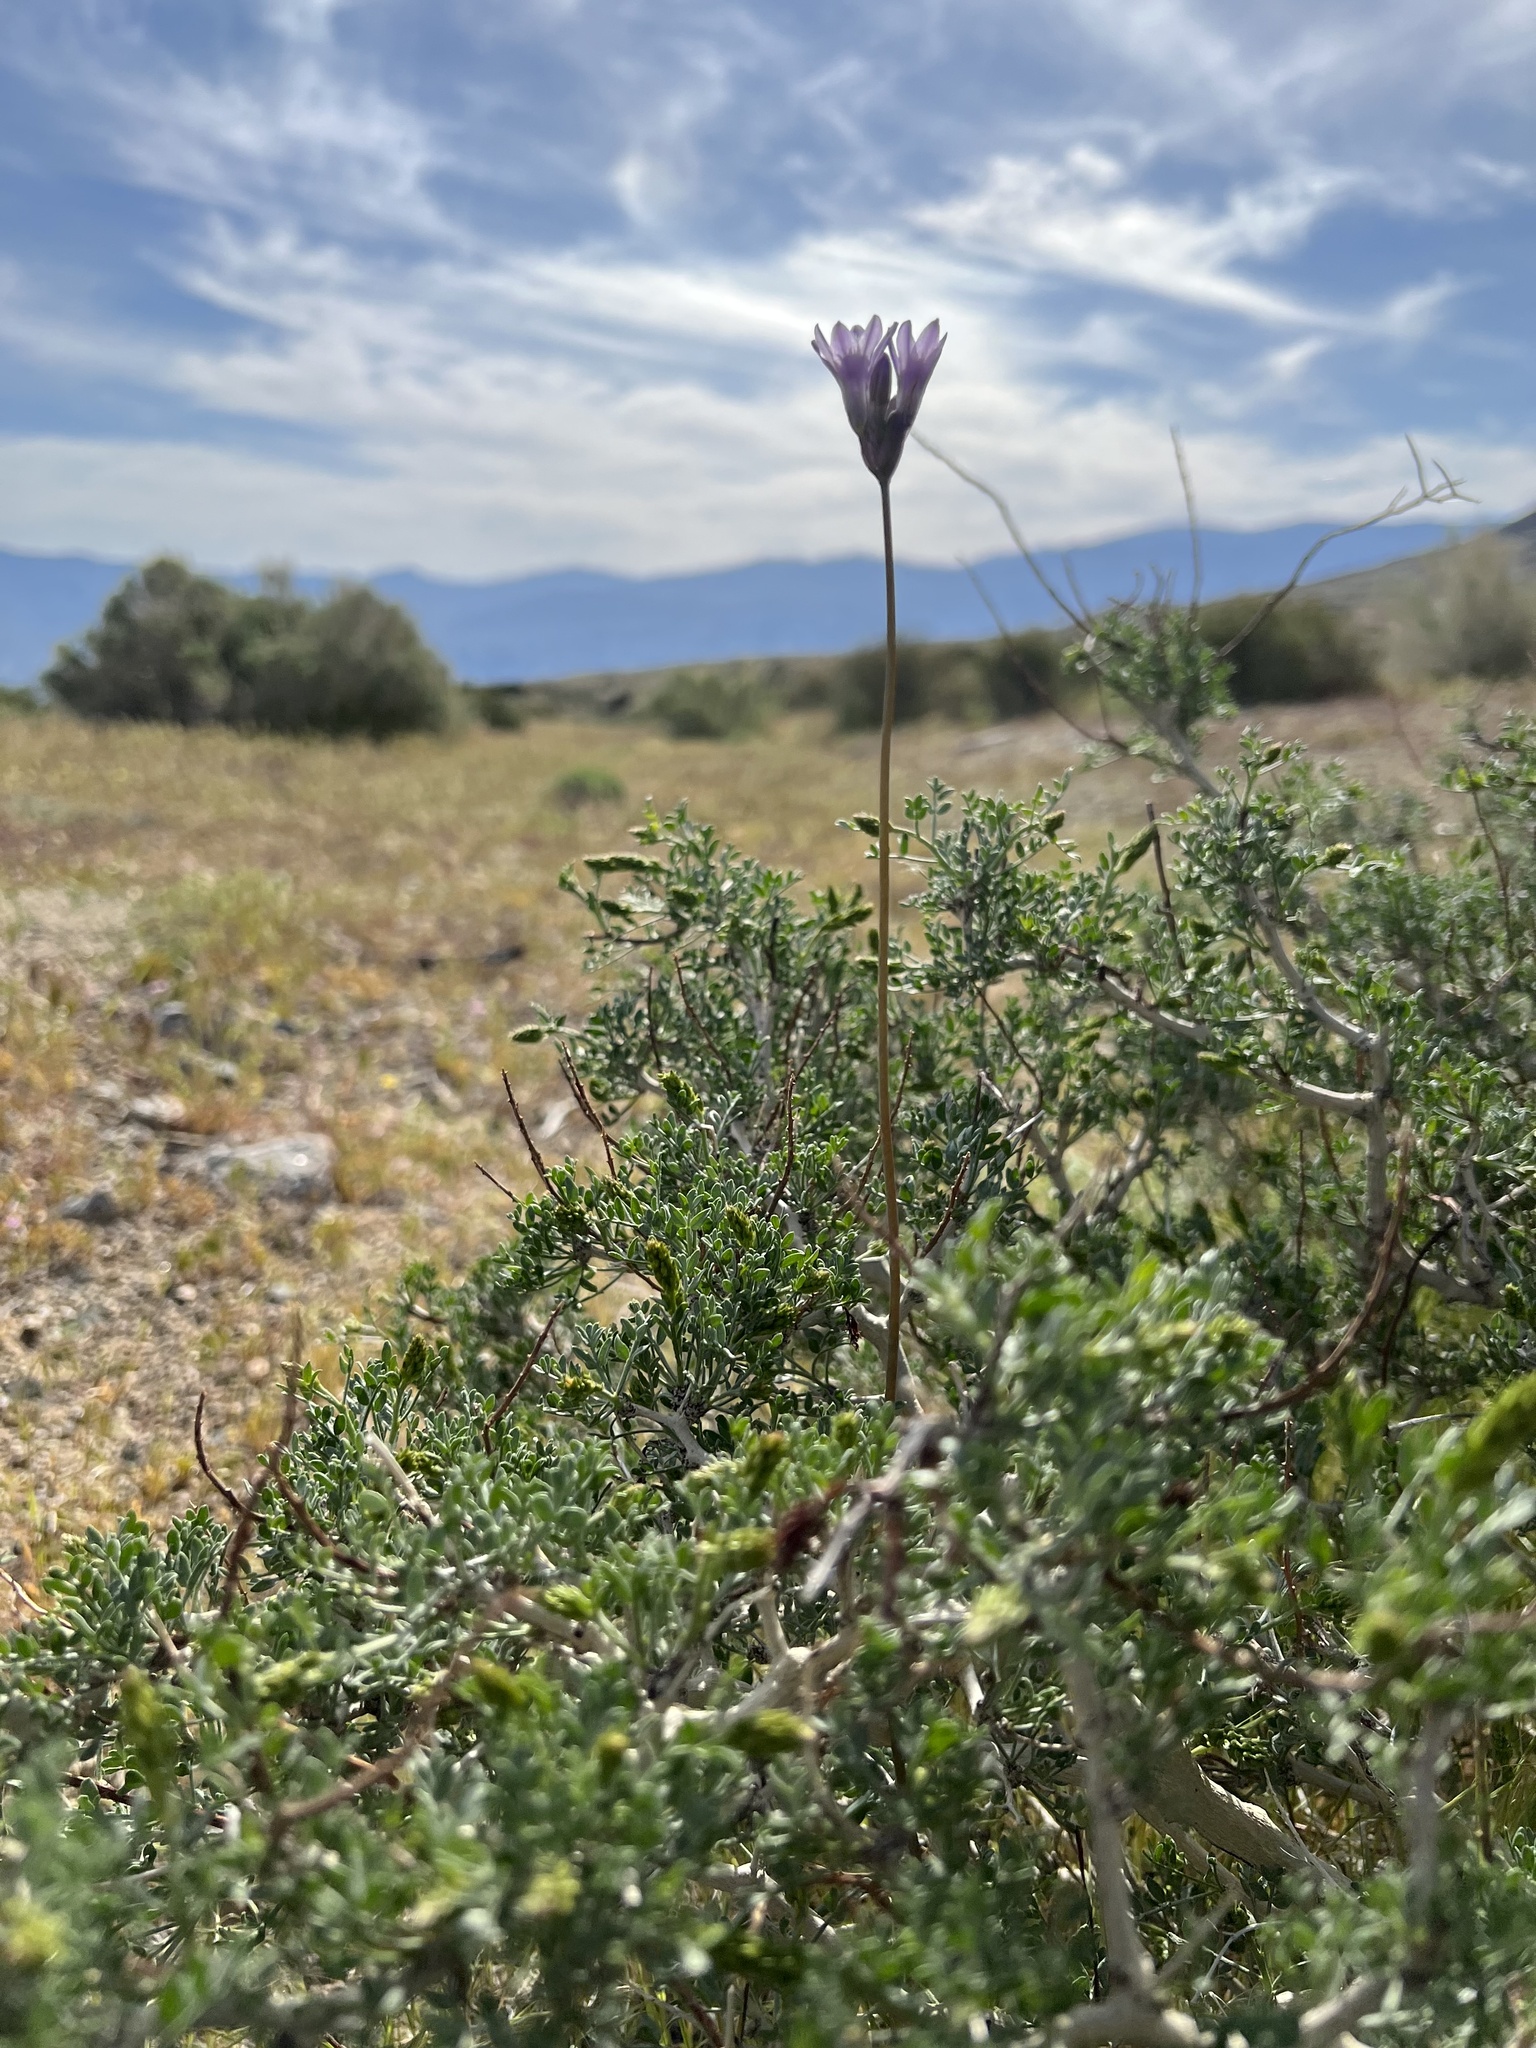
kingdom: Plantae
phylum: Tracheophyta
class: Liliopsida
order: Asparagales
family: Asparagaceae
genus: Dipterostemon
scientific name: Dipterostemon capitatus
